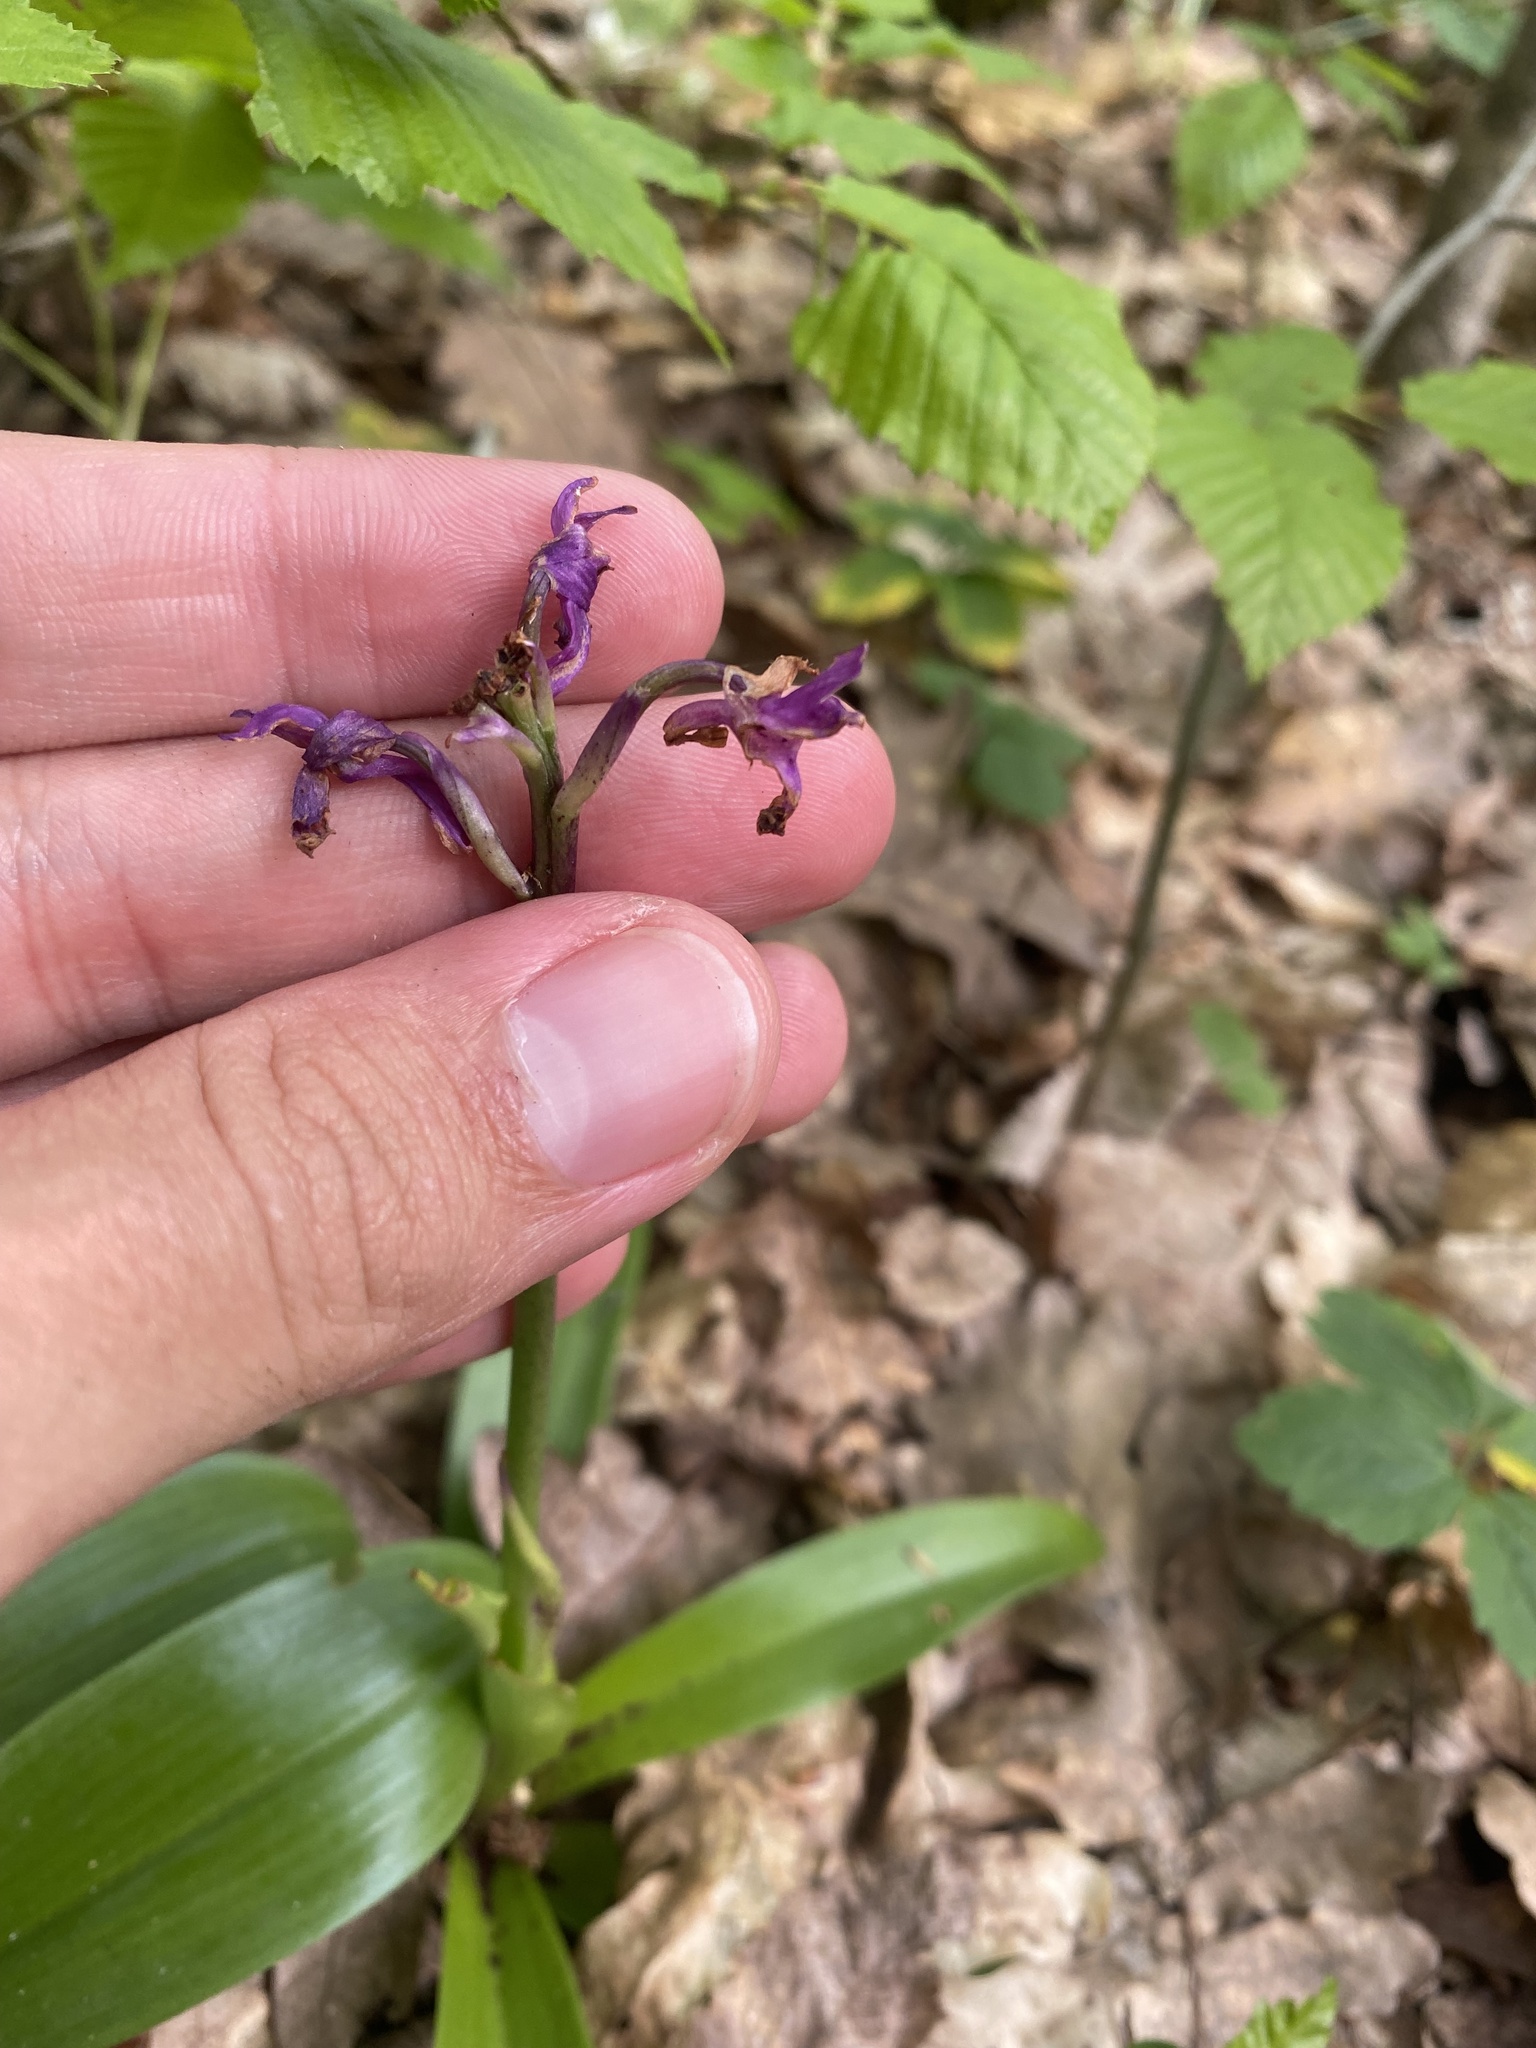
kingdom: Plantae
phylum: Tracheophyta
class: Liliopsida
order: Asparagales
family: Orchidaceae
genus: Orchis
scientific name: Orchis mascula
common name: Early-purple orchid
